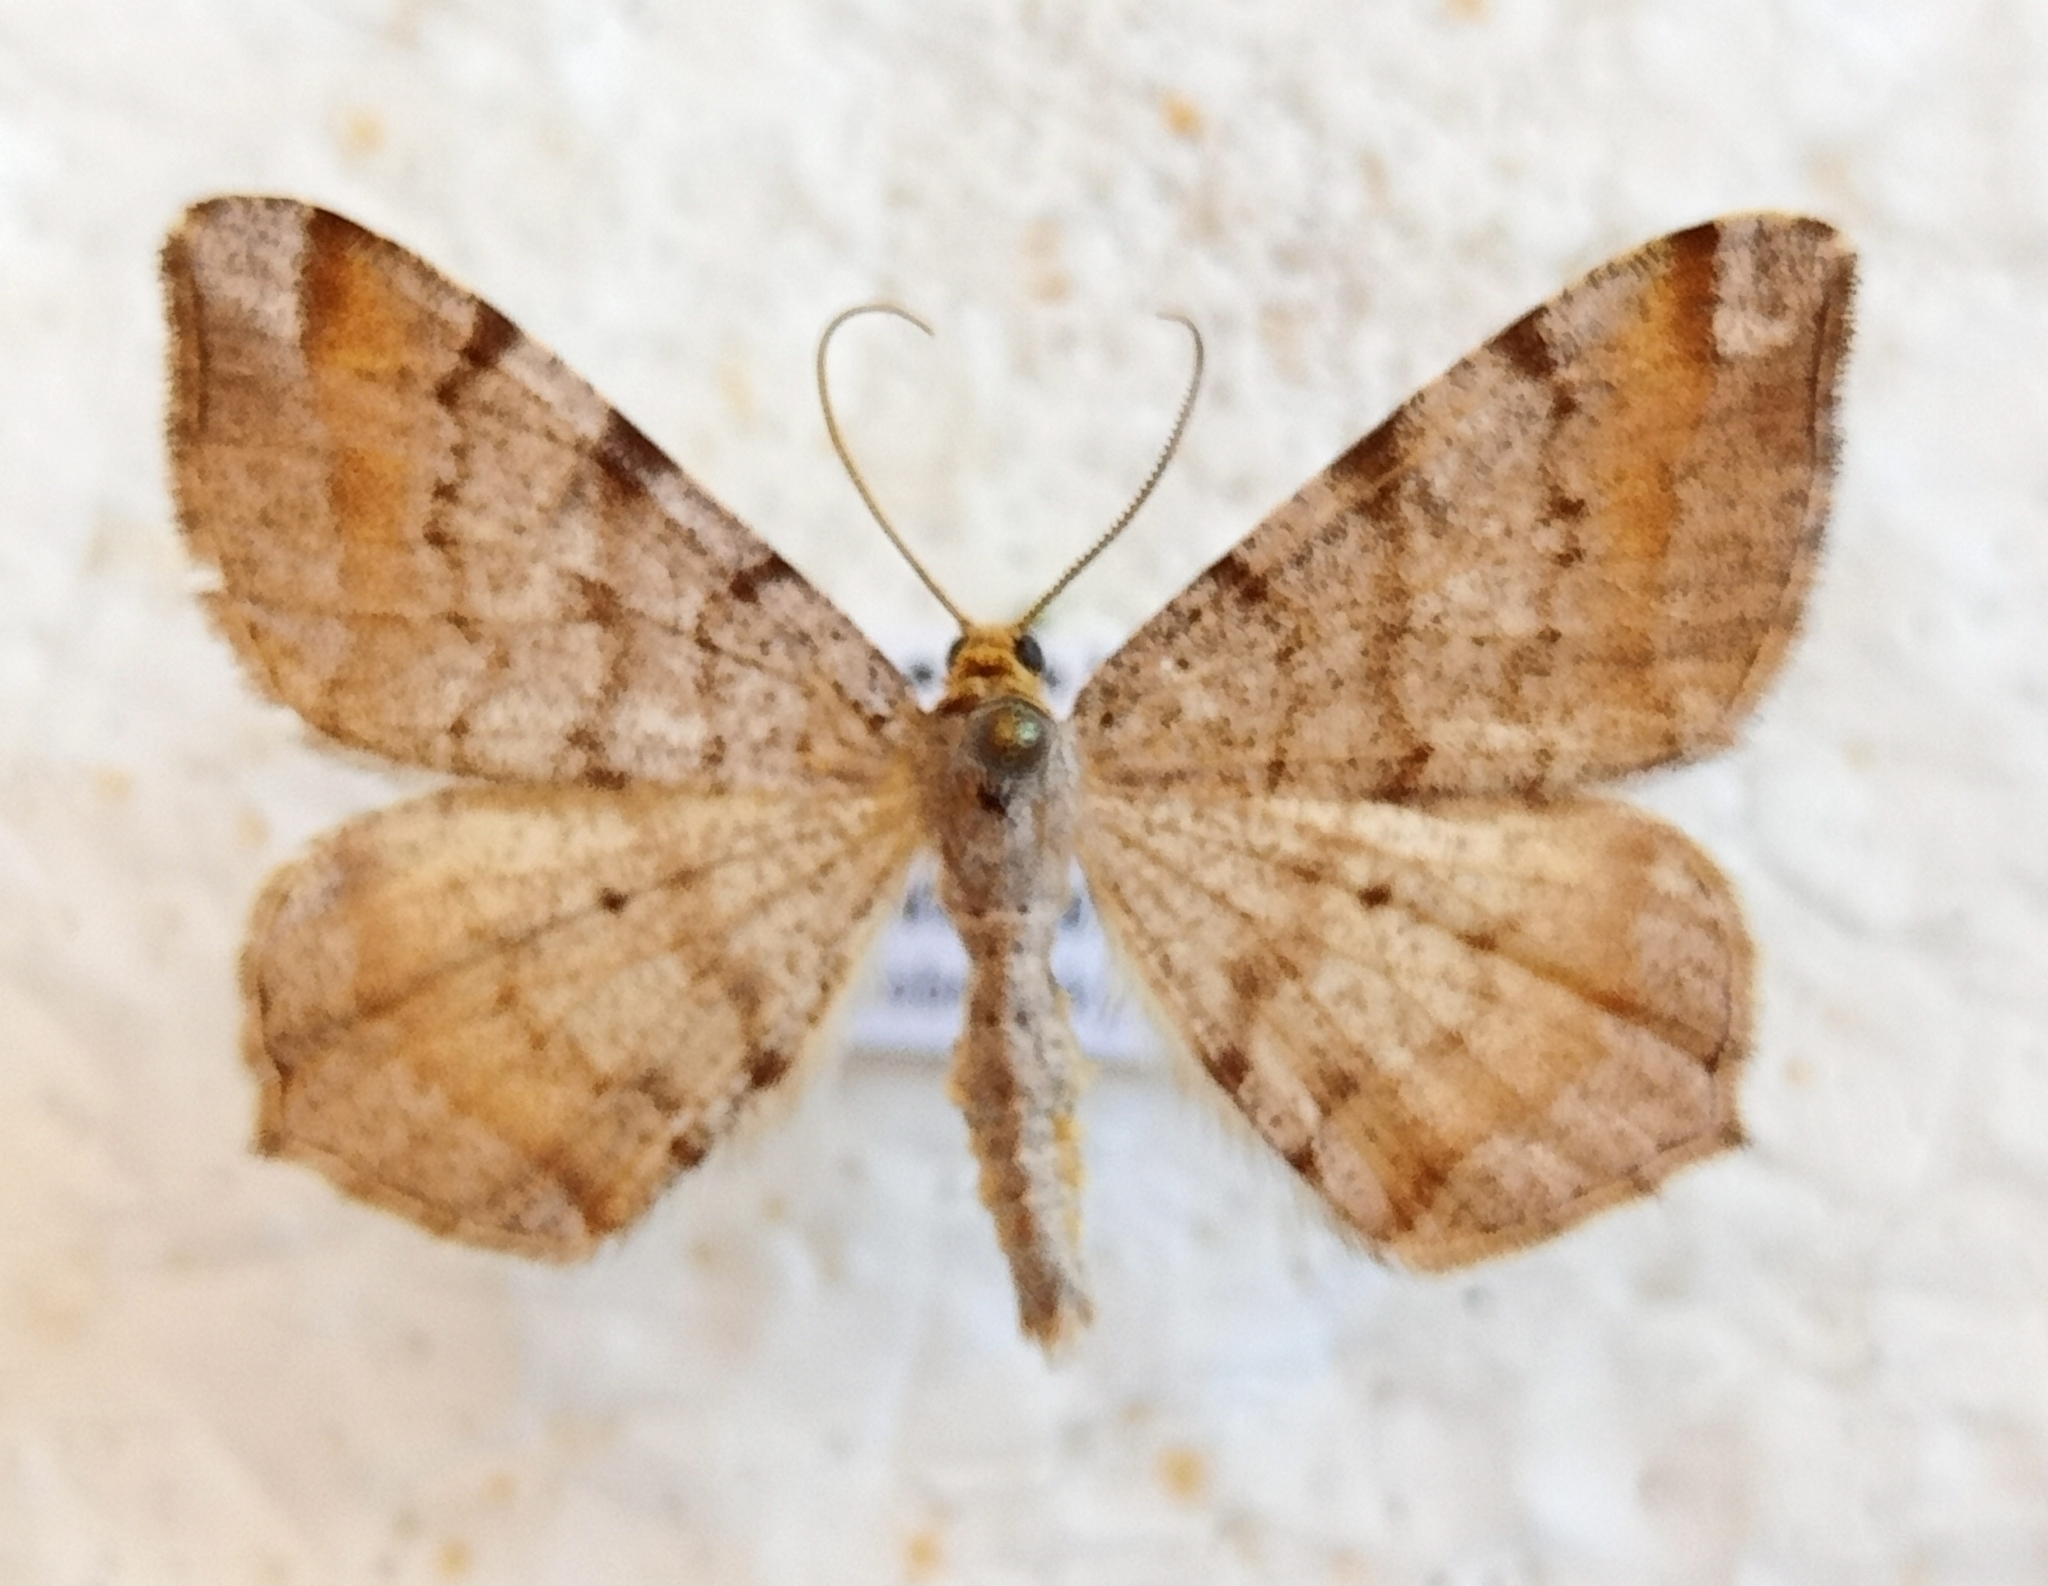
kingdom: Animalia
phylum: Arthropoda
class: Insecta
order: Lepidoptera
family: Geometridae
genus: Macaria
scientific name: Macaria liturata
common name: Tawny-barred angle
